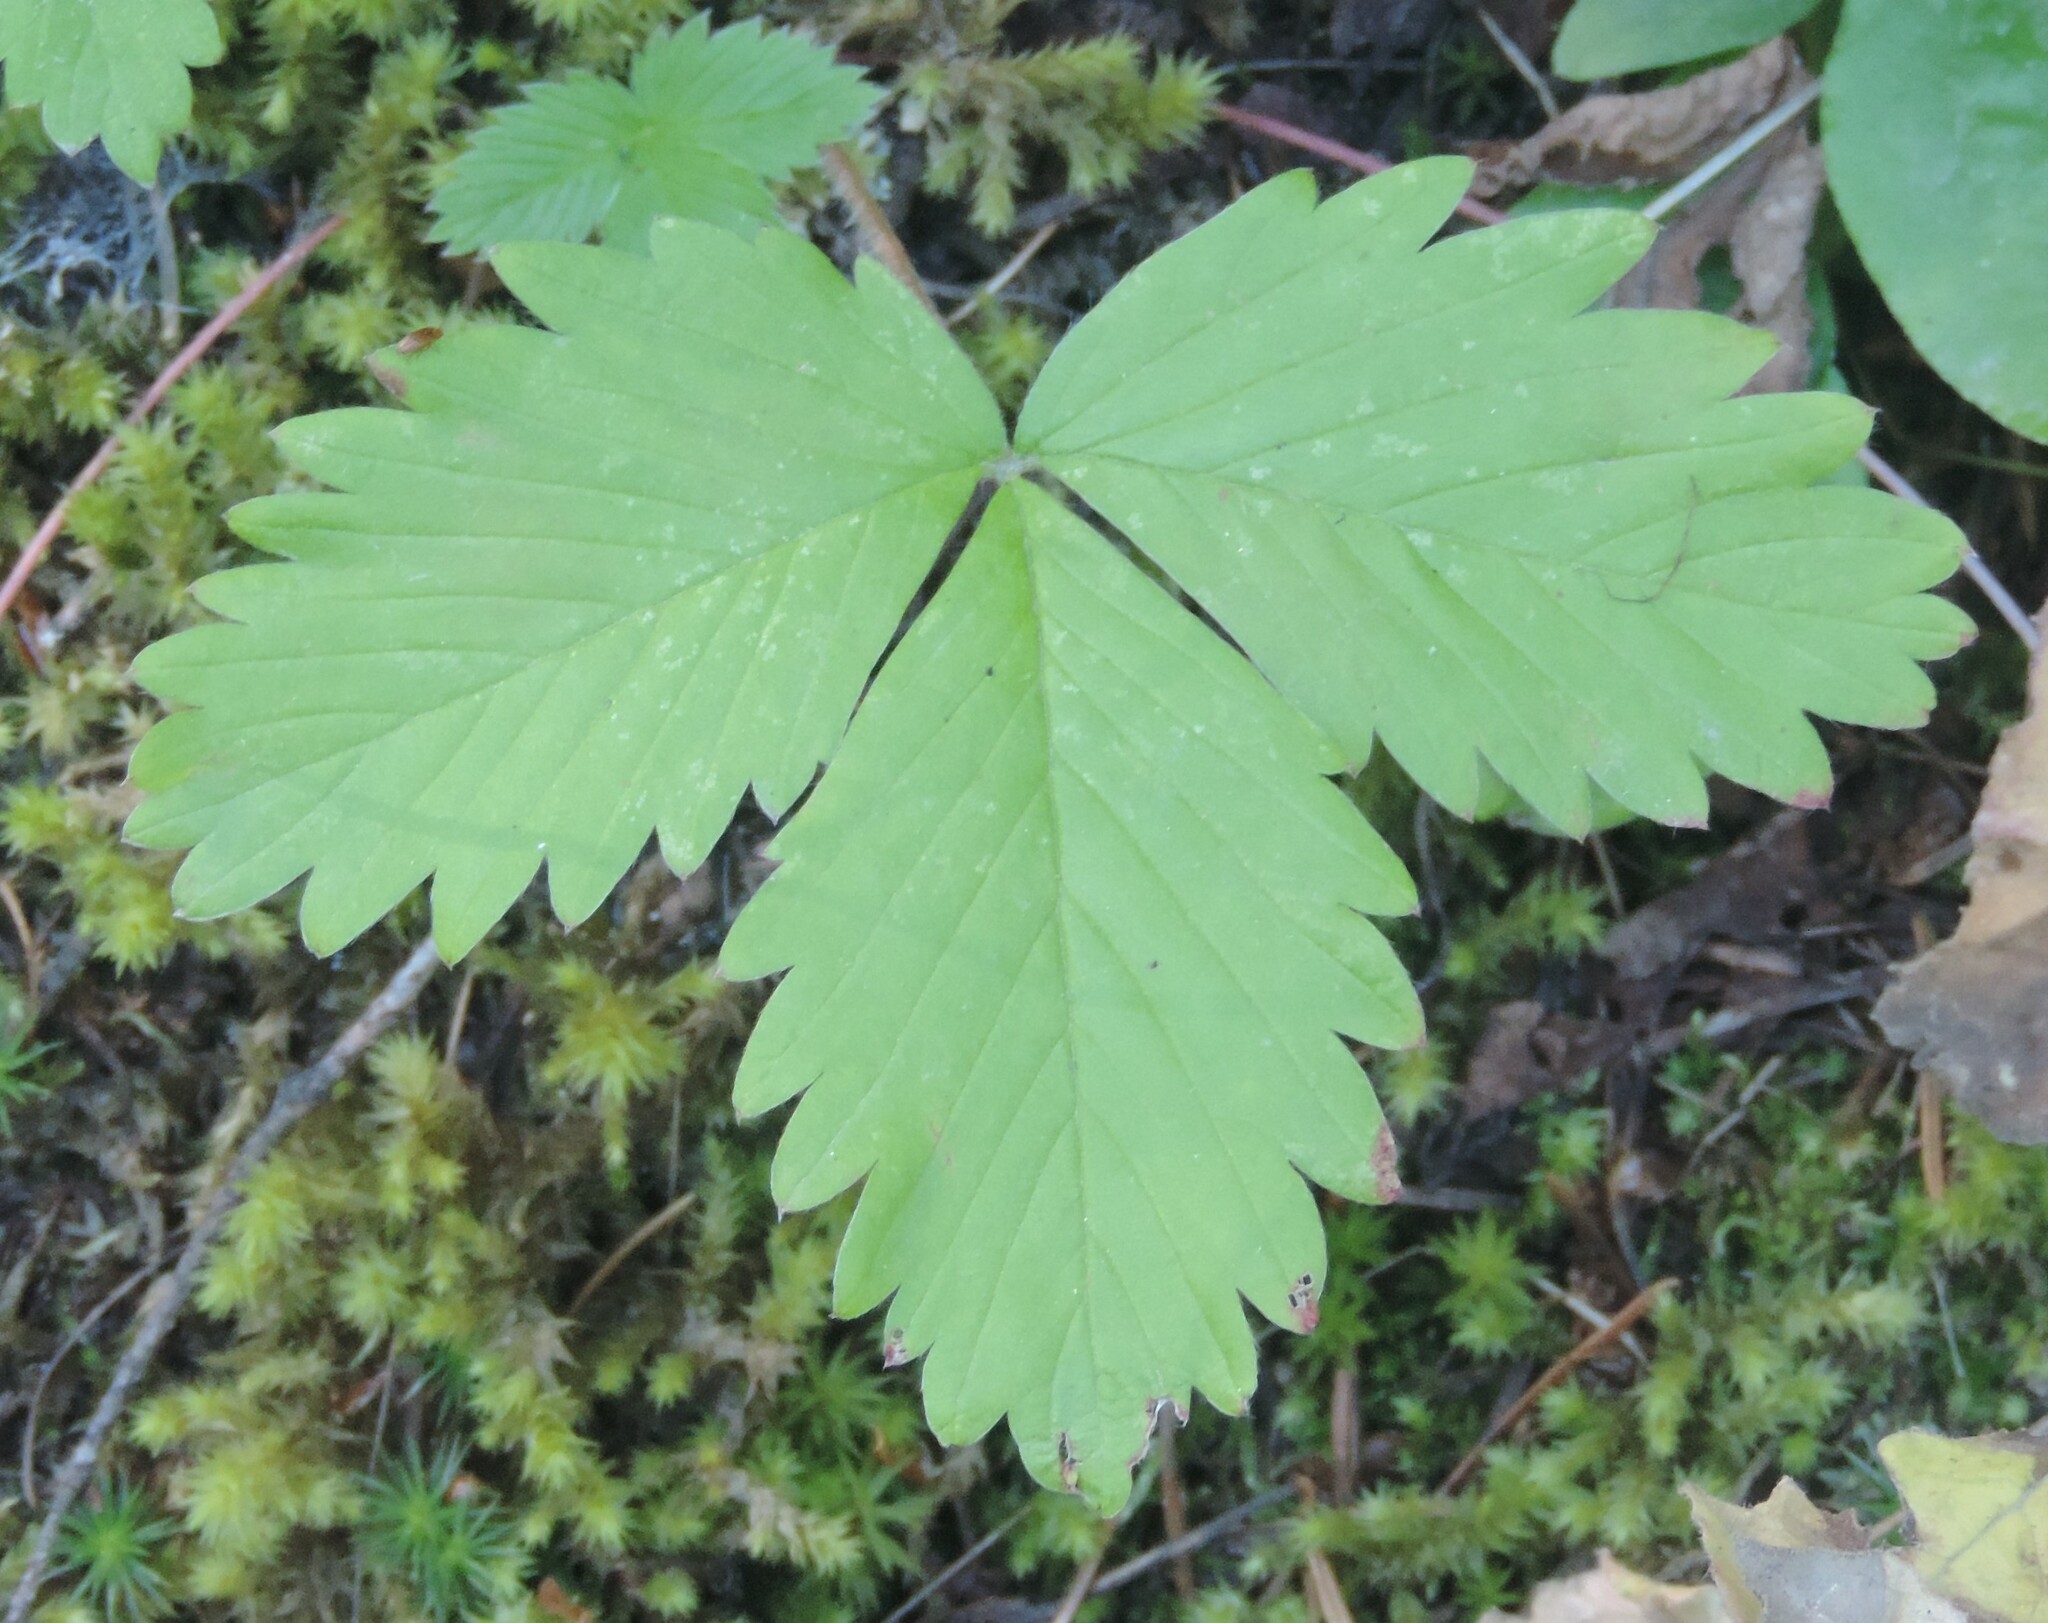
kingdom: Plantae
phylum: Tracheophyta
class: Magnoliopsida
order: Rosales
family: Rosaceae
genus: Fragaria
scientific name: Fragaria vesca
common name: Wild strawberry
